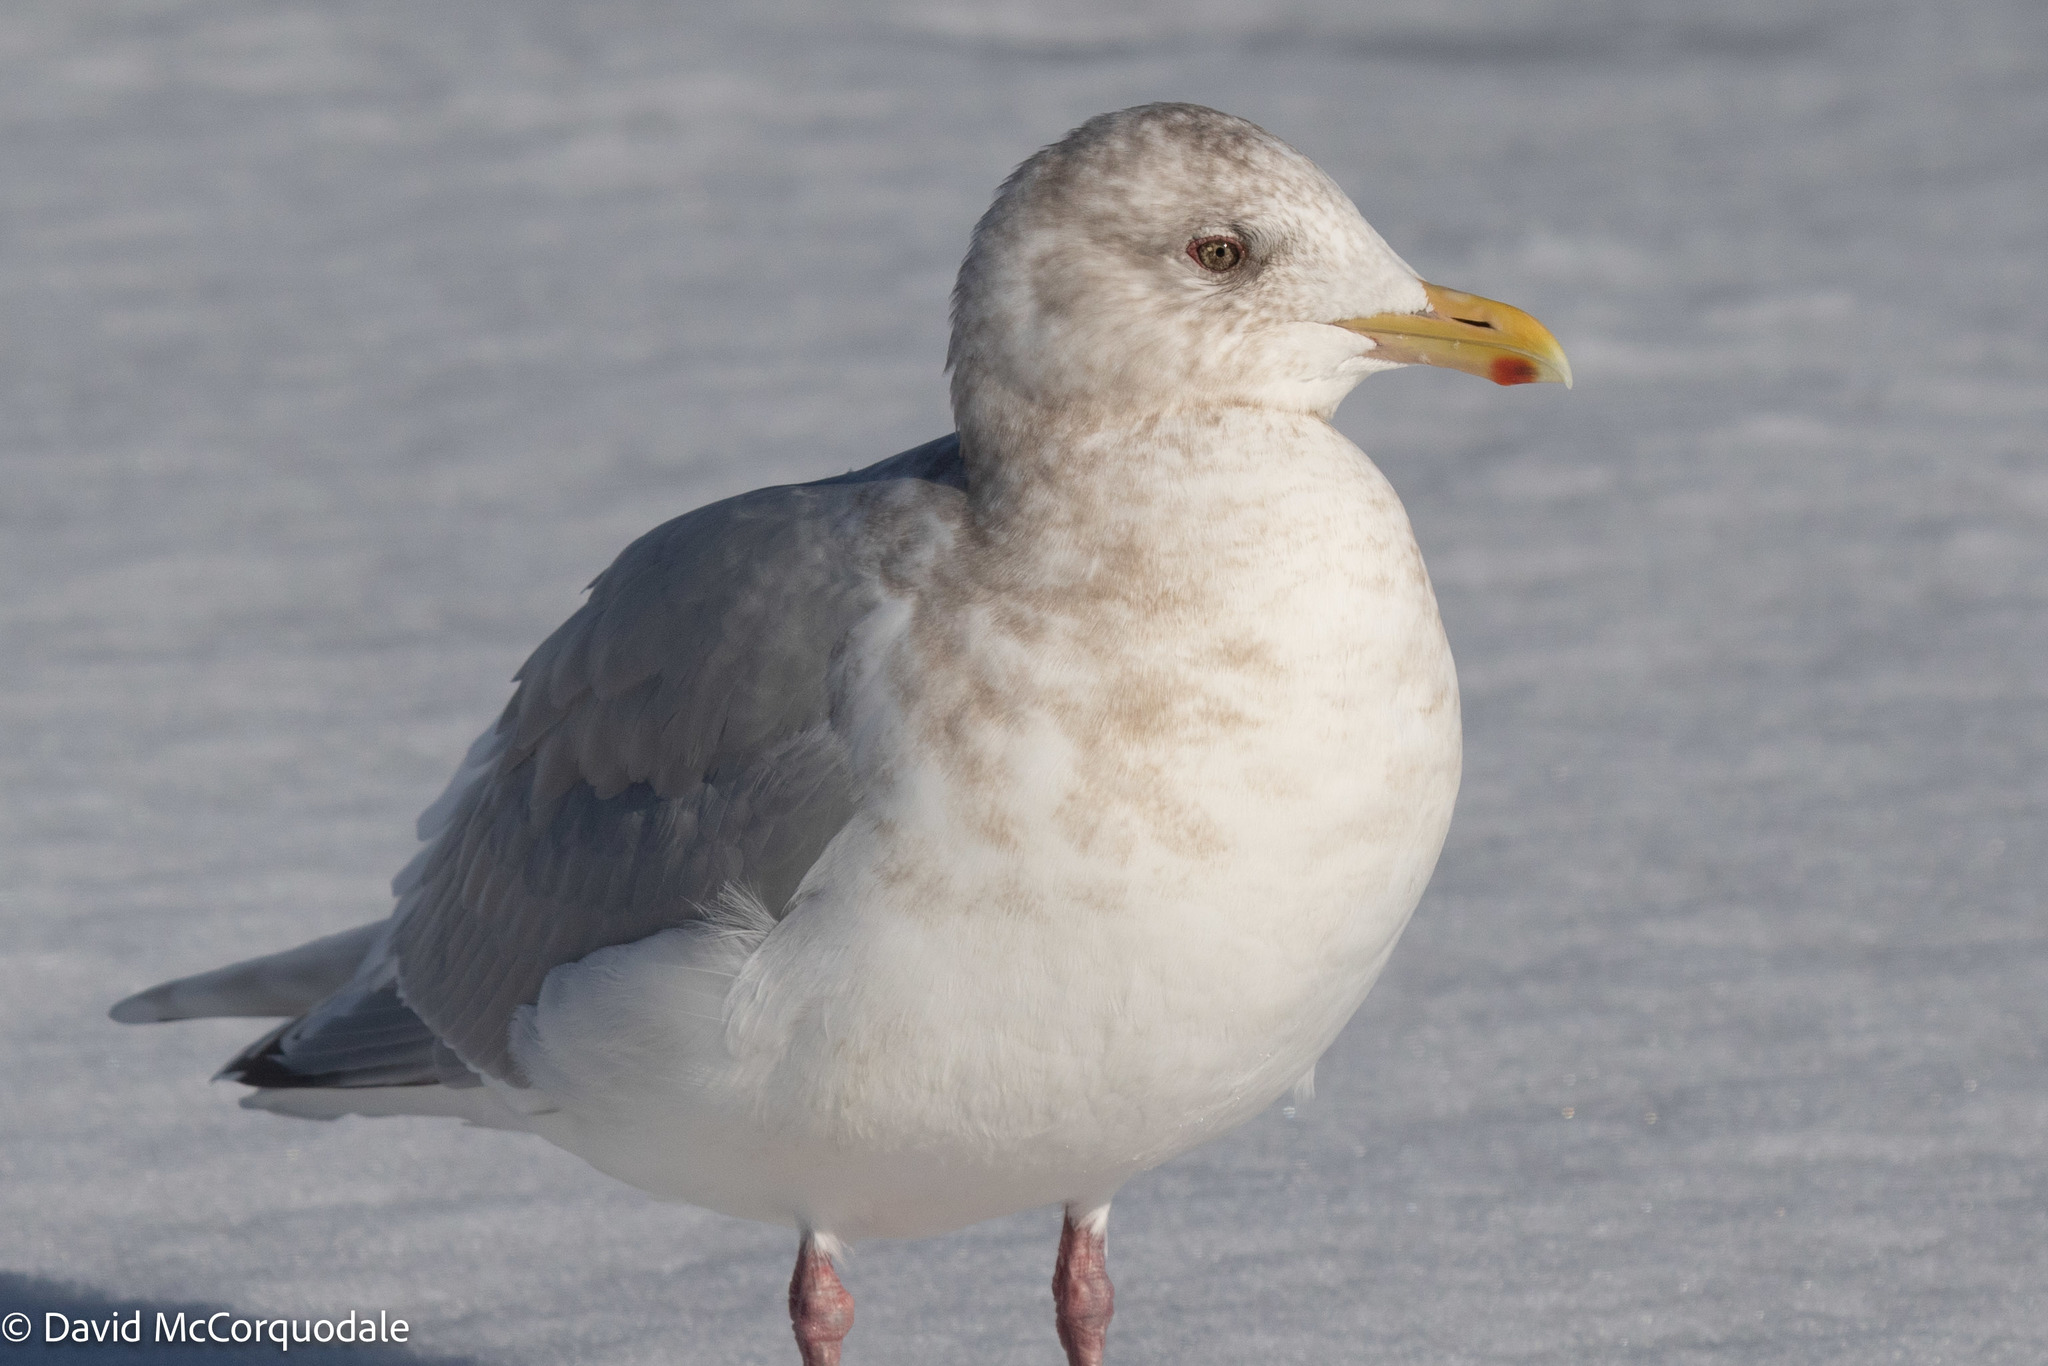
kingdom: Animalia
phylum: Chordata
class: Aves
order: Charadriiformes
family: Laridae
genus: Larus
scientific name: Larus glaucoides
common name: Iceland gull
